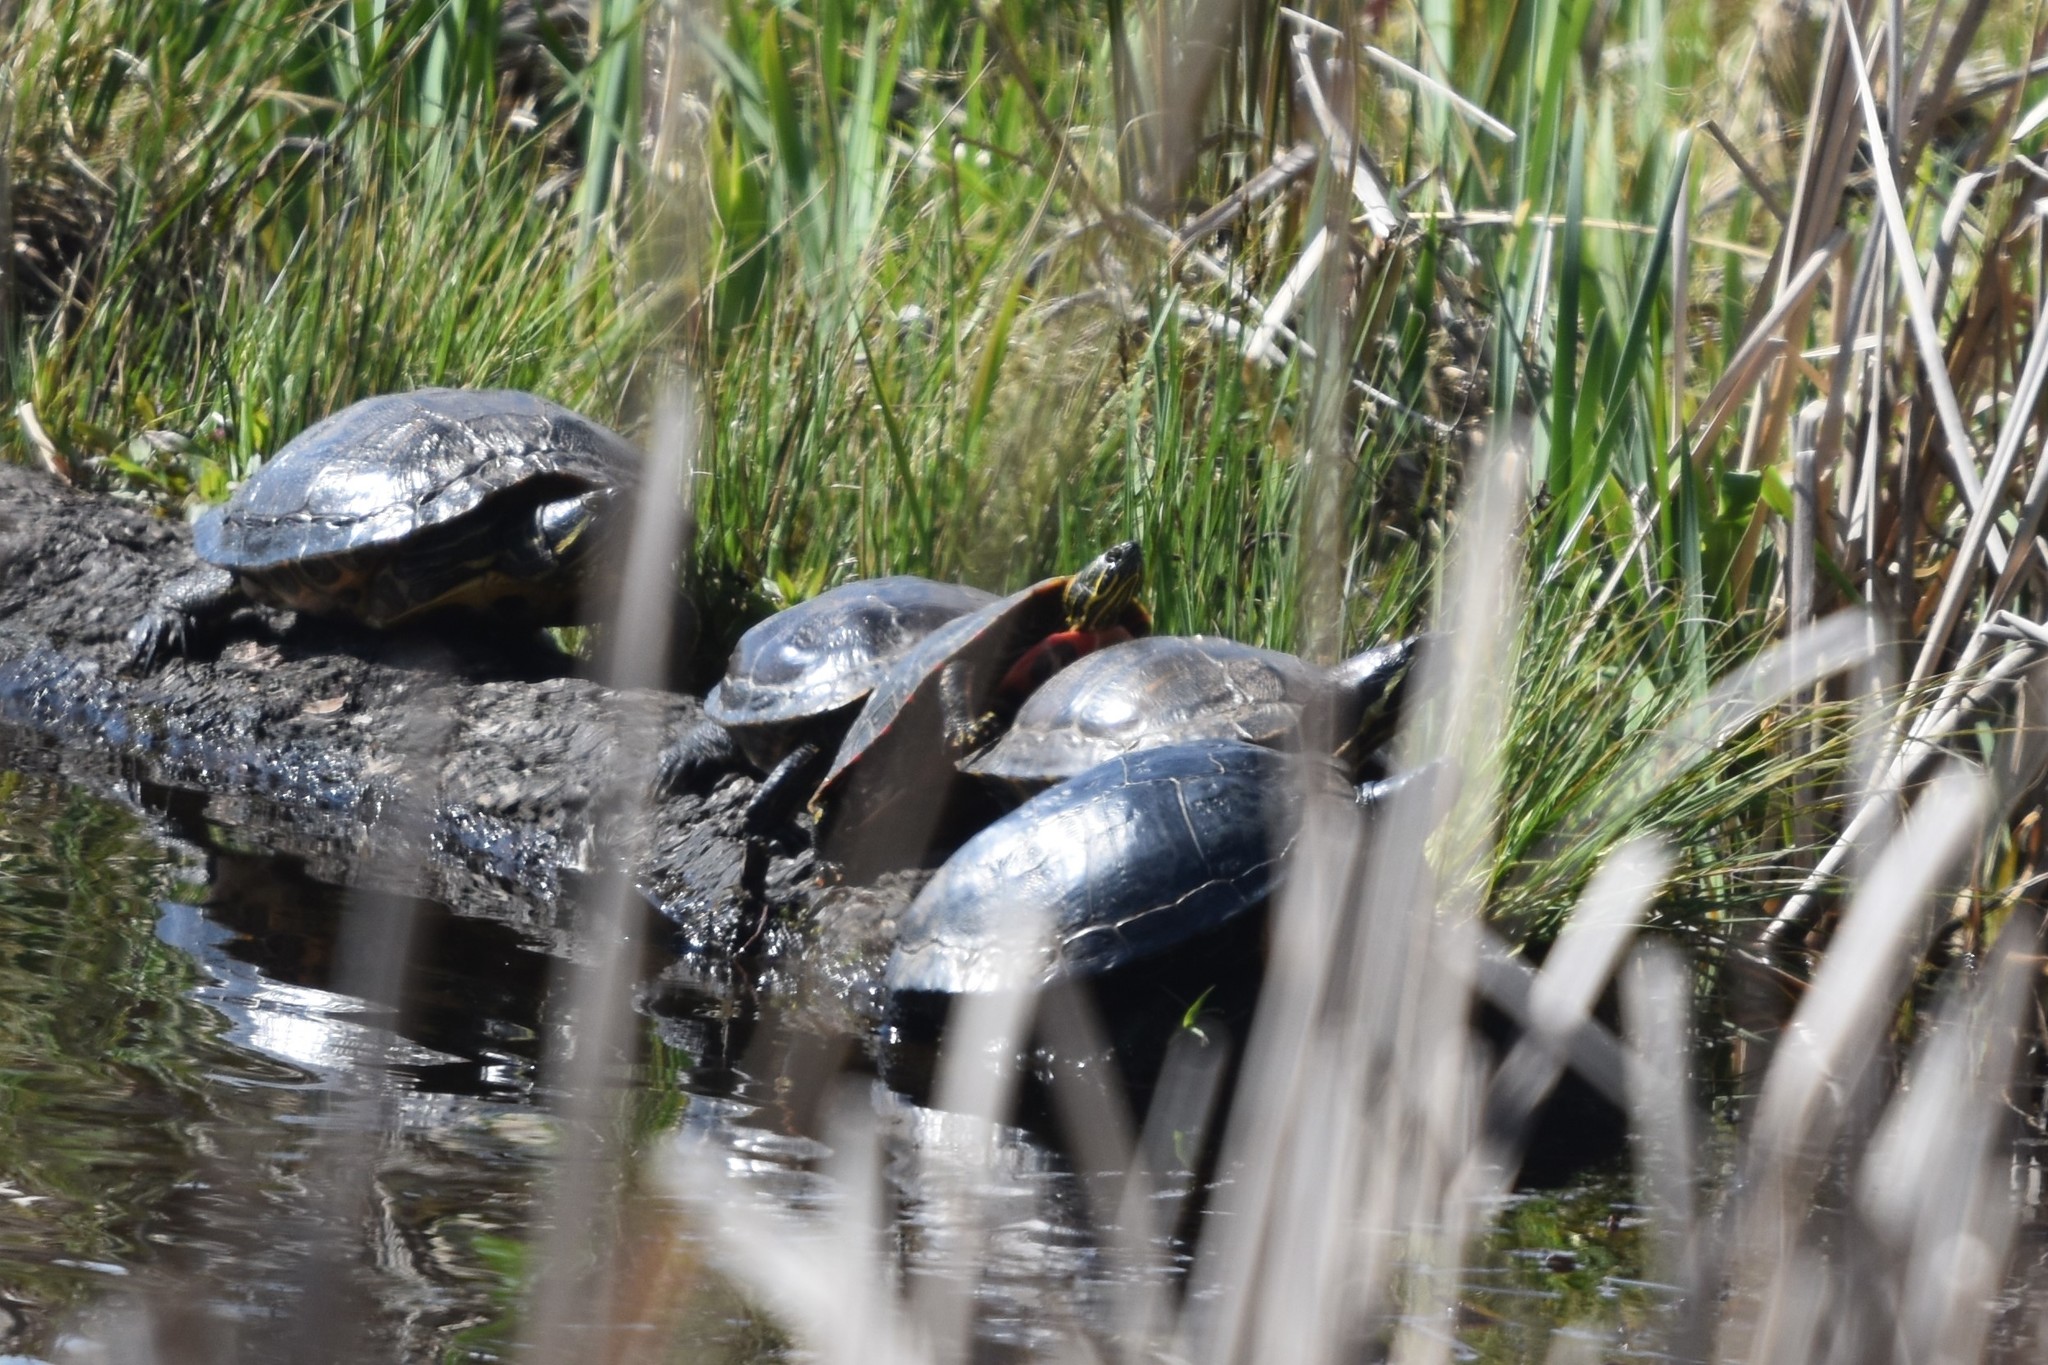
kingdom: Animalia
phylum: Chordata
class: Testudines
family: Emydidae
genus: Chrysemys
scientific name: Chrysemys picta
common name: Painted turtle
